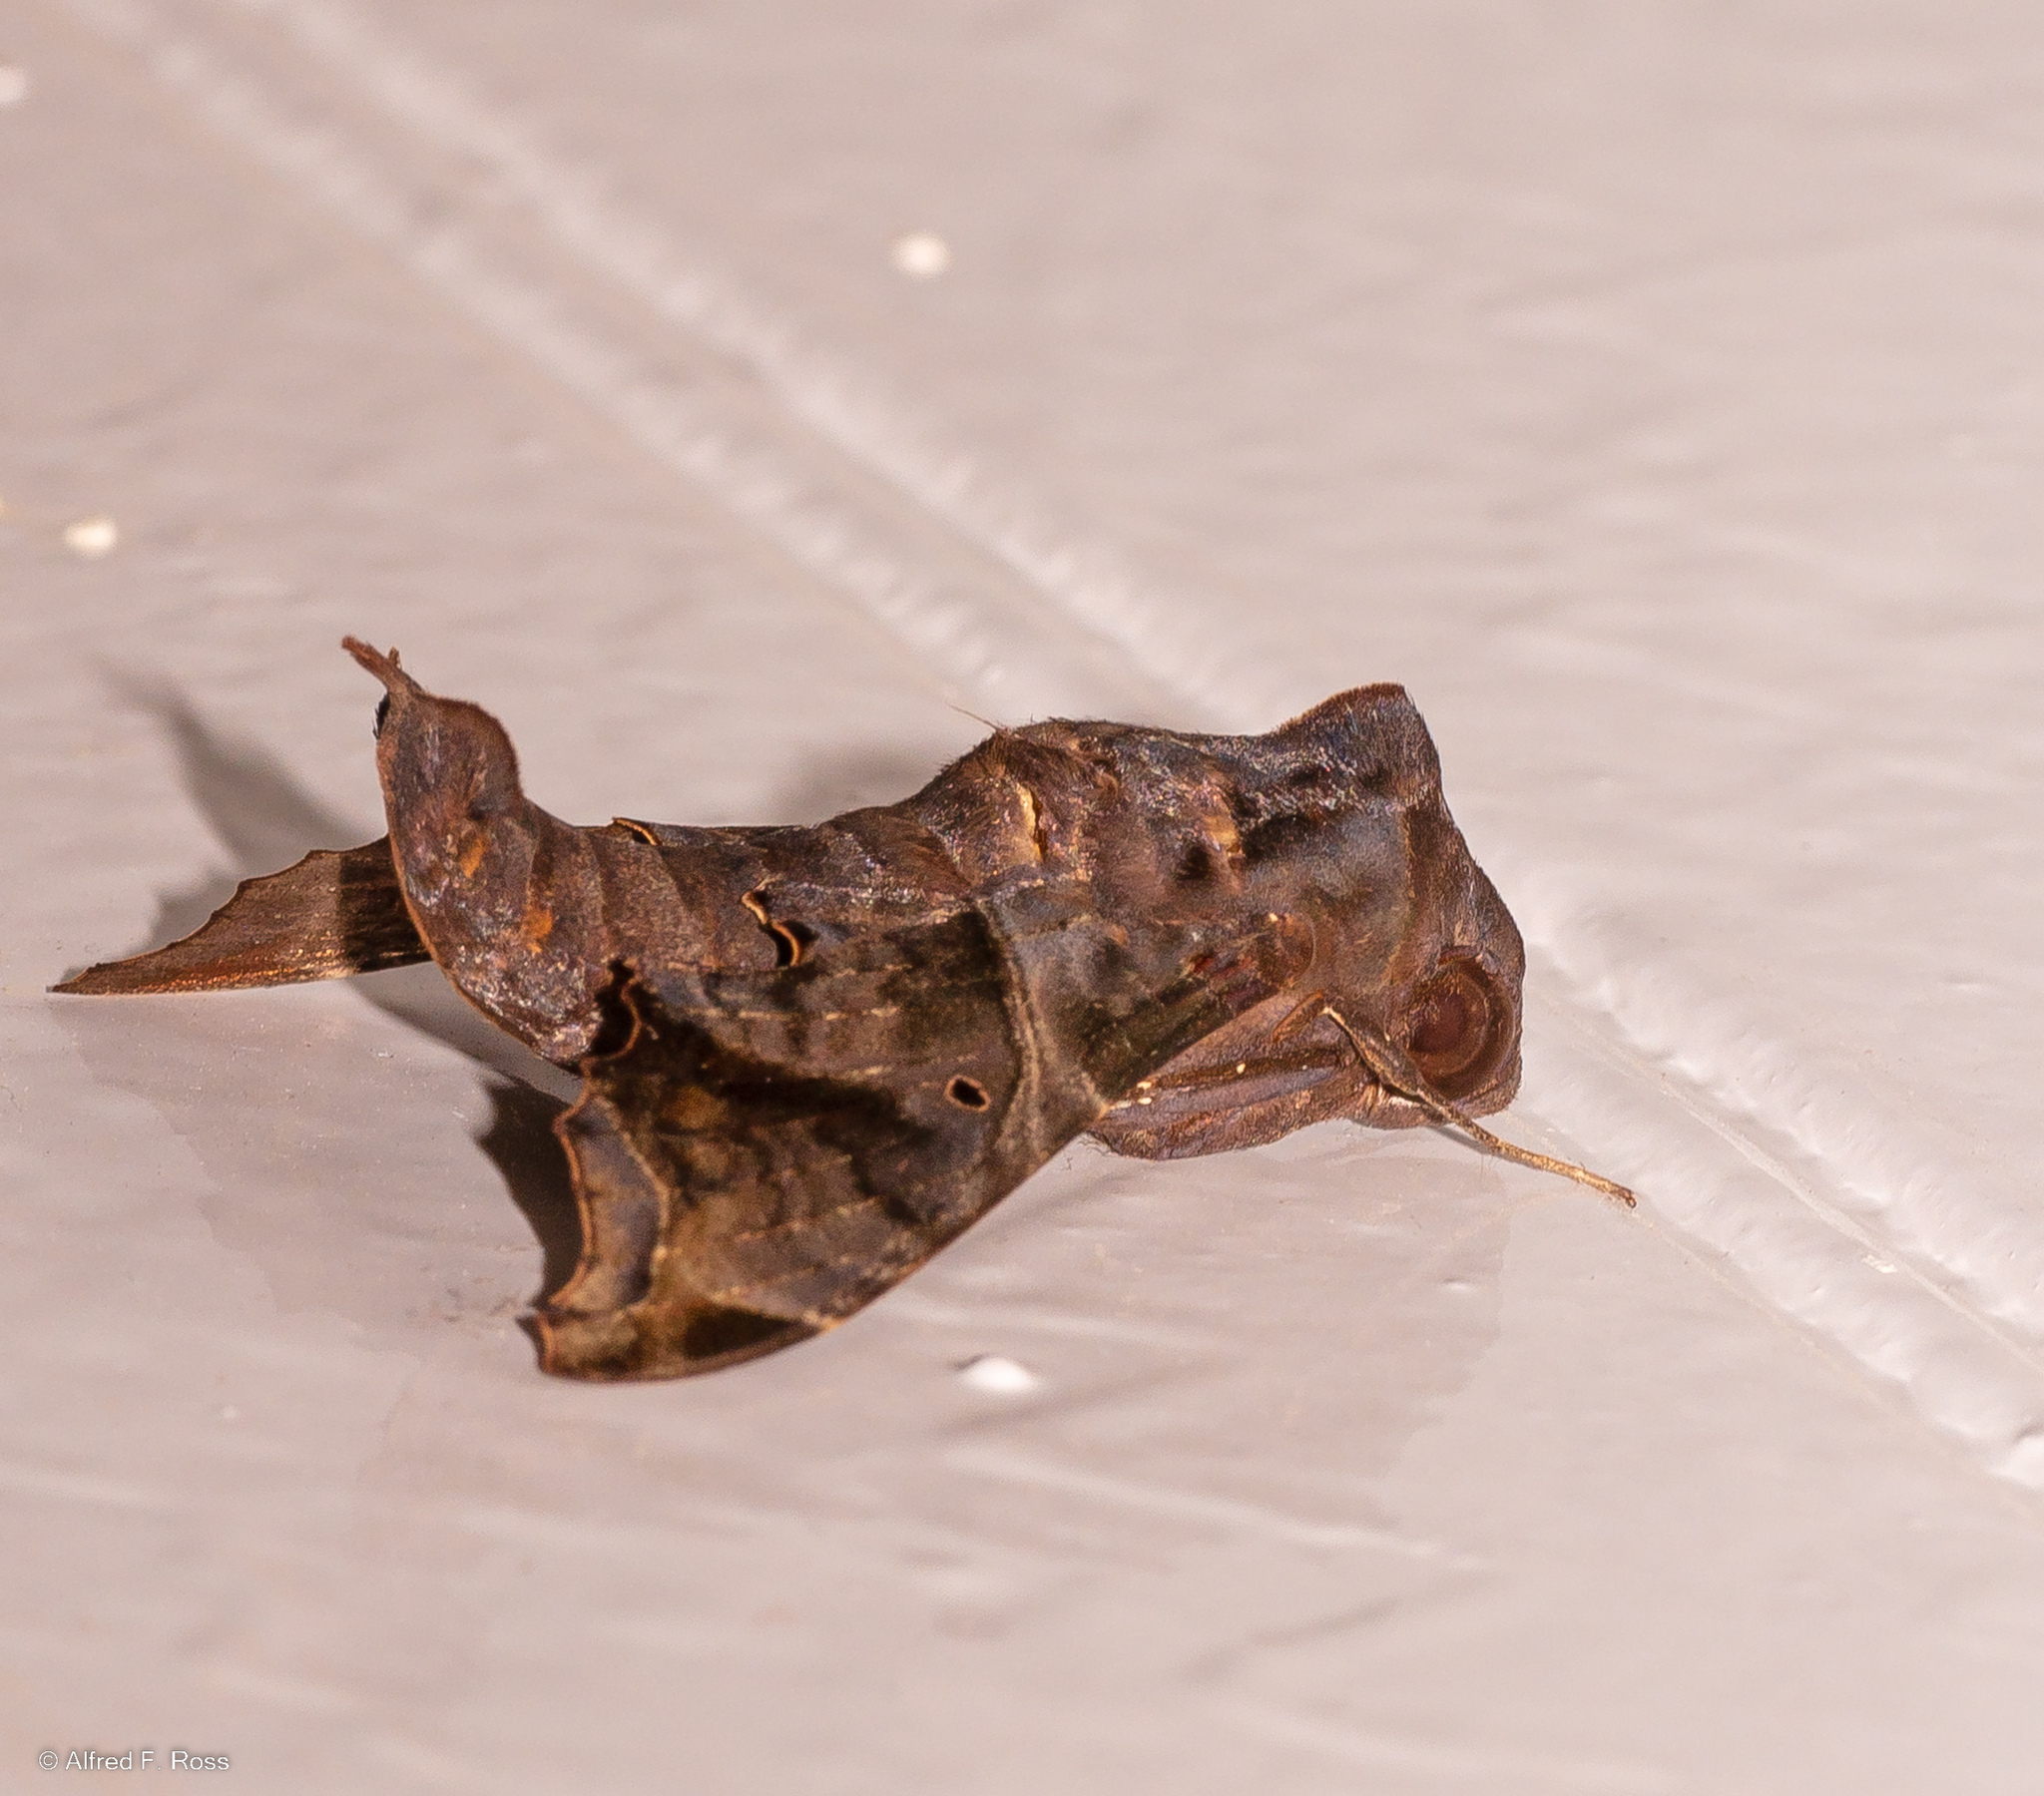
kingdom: Animalia
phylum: Arthropoda
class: Insecta
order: Lepidoptera
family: Sphingidae
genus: Enyo
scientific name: Enyo lugubris
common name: Mournful sphinx
